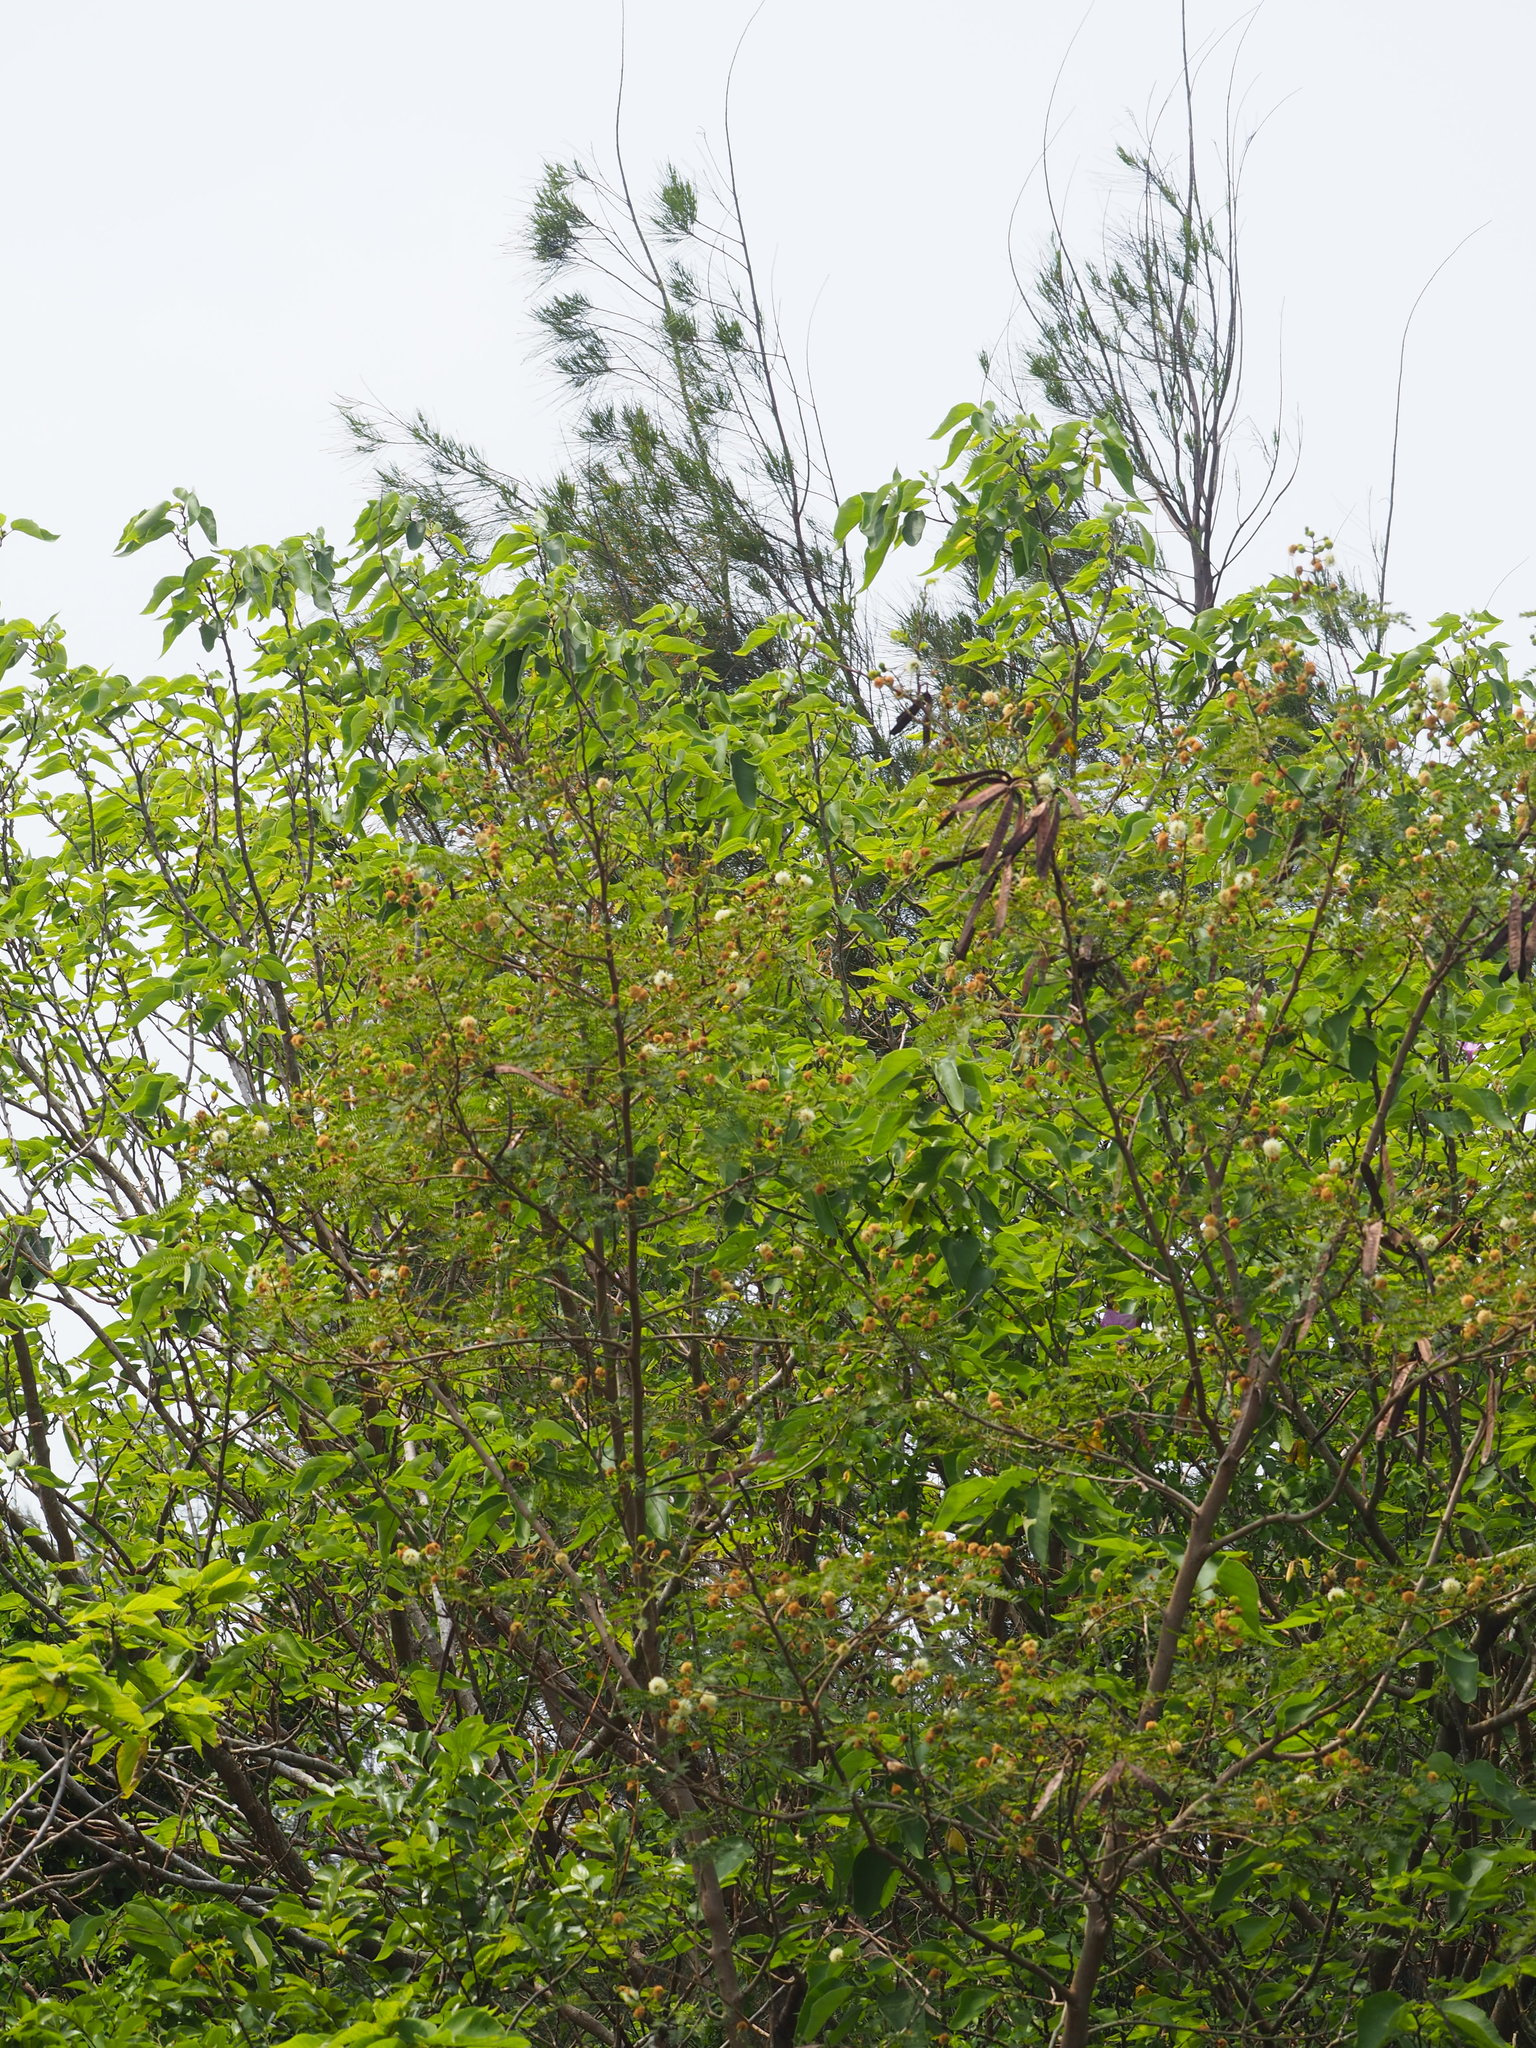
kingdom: Plantae
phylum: Tracheophyta
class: Magnoliopsida
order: Fabales
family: Fabaceae
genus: Leucaena
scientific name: Leucaena leucocephala
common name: White leadtree
